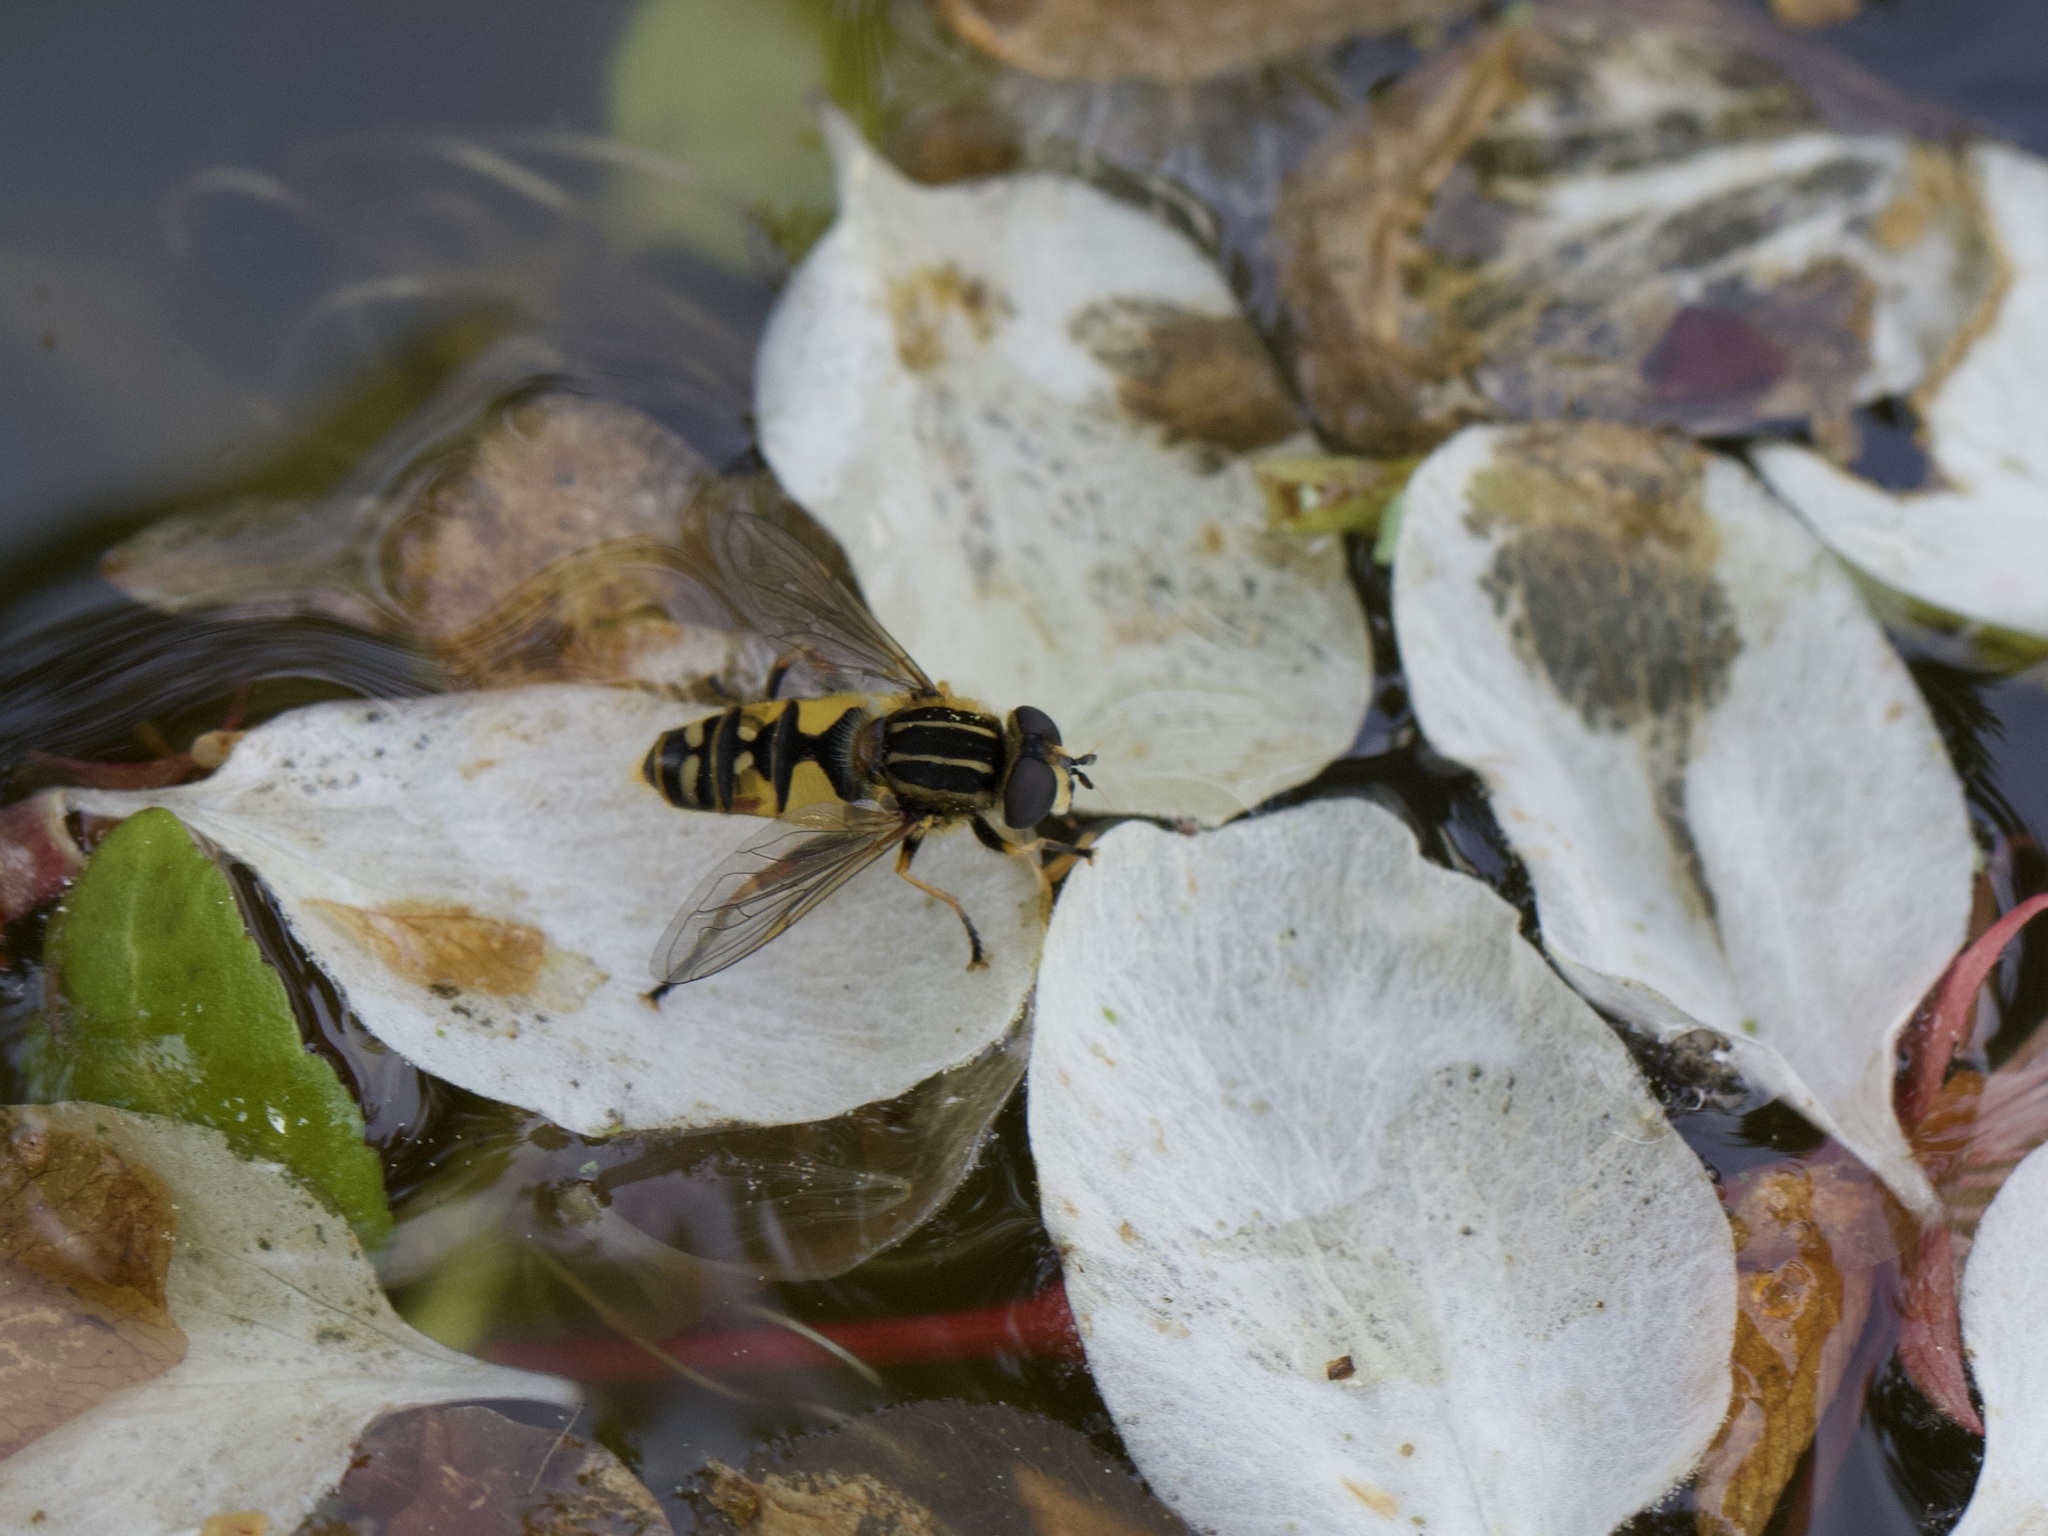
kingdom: Animalia
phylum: Arthropoda
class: Insecta
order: Diptera
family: Syrphidae
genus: Helophilus
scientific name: Helophilus pendulus
